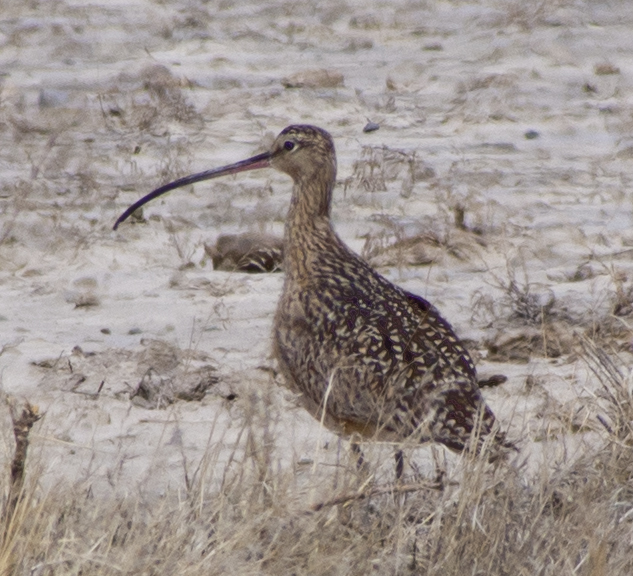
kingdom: Animalia
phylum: Chordata
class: Aves
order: Charadriiformes
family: Scolopacidae
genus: Numenius
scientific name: Numenius americanus
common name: Long-billed curlew
